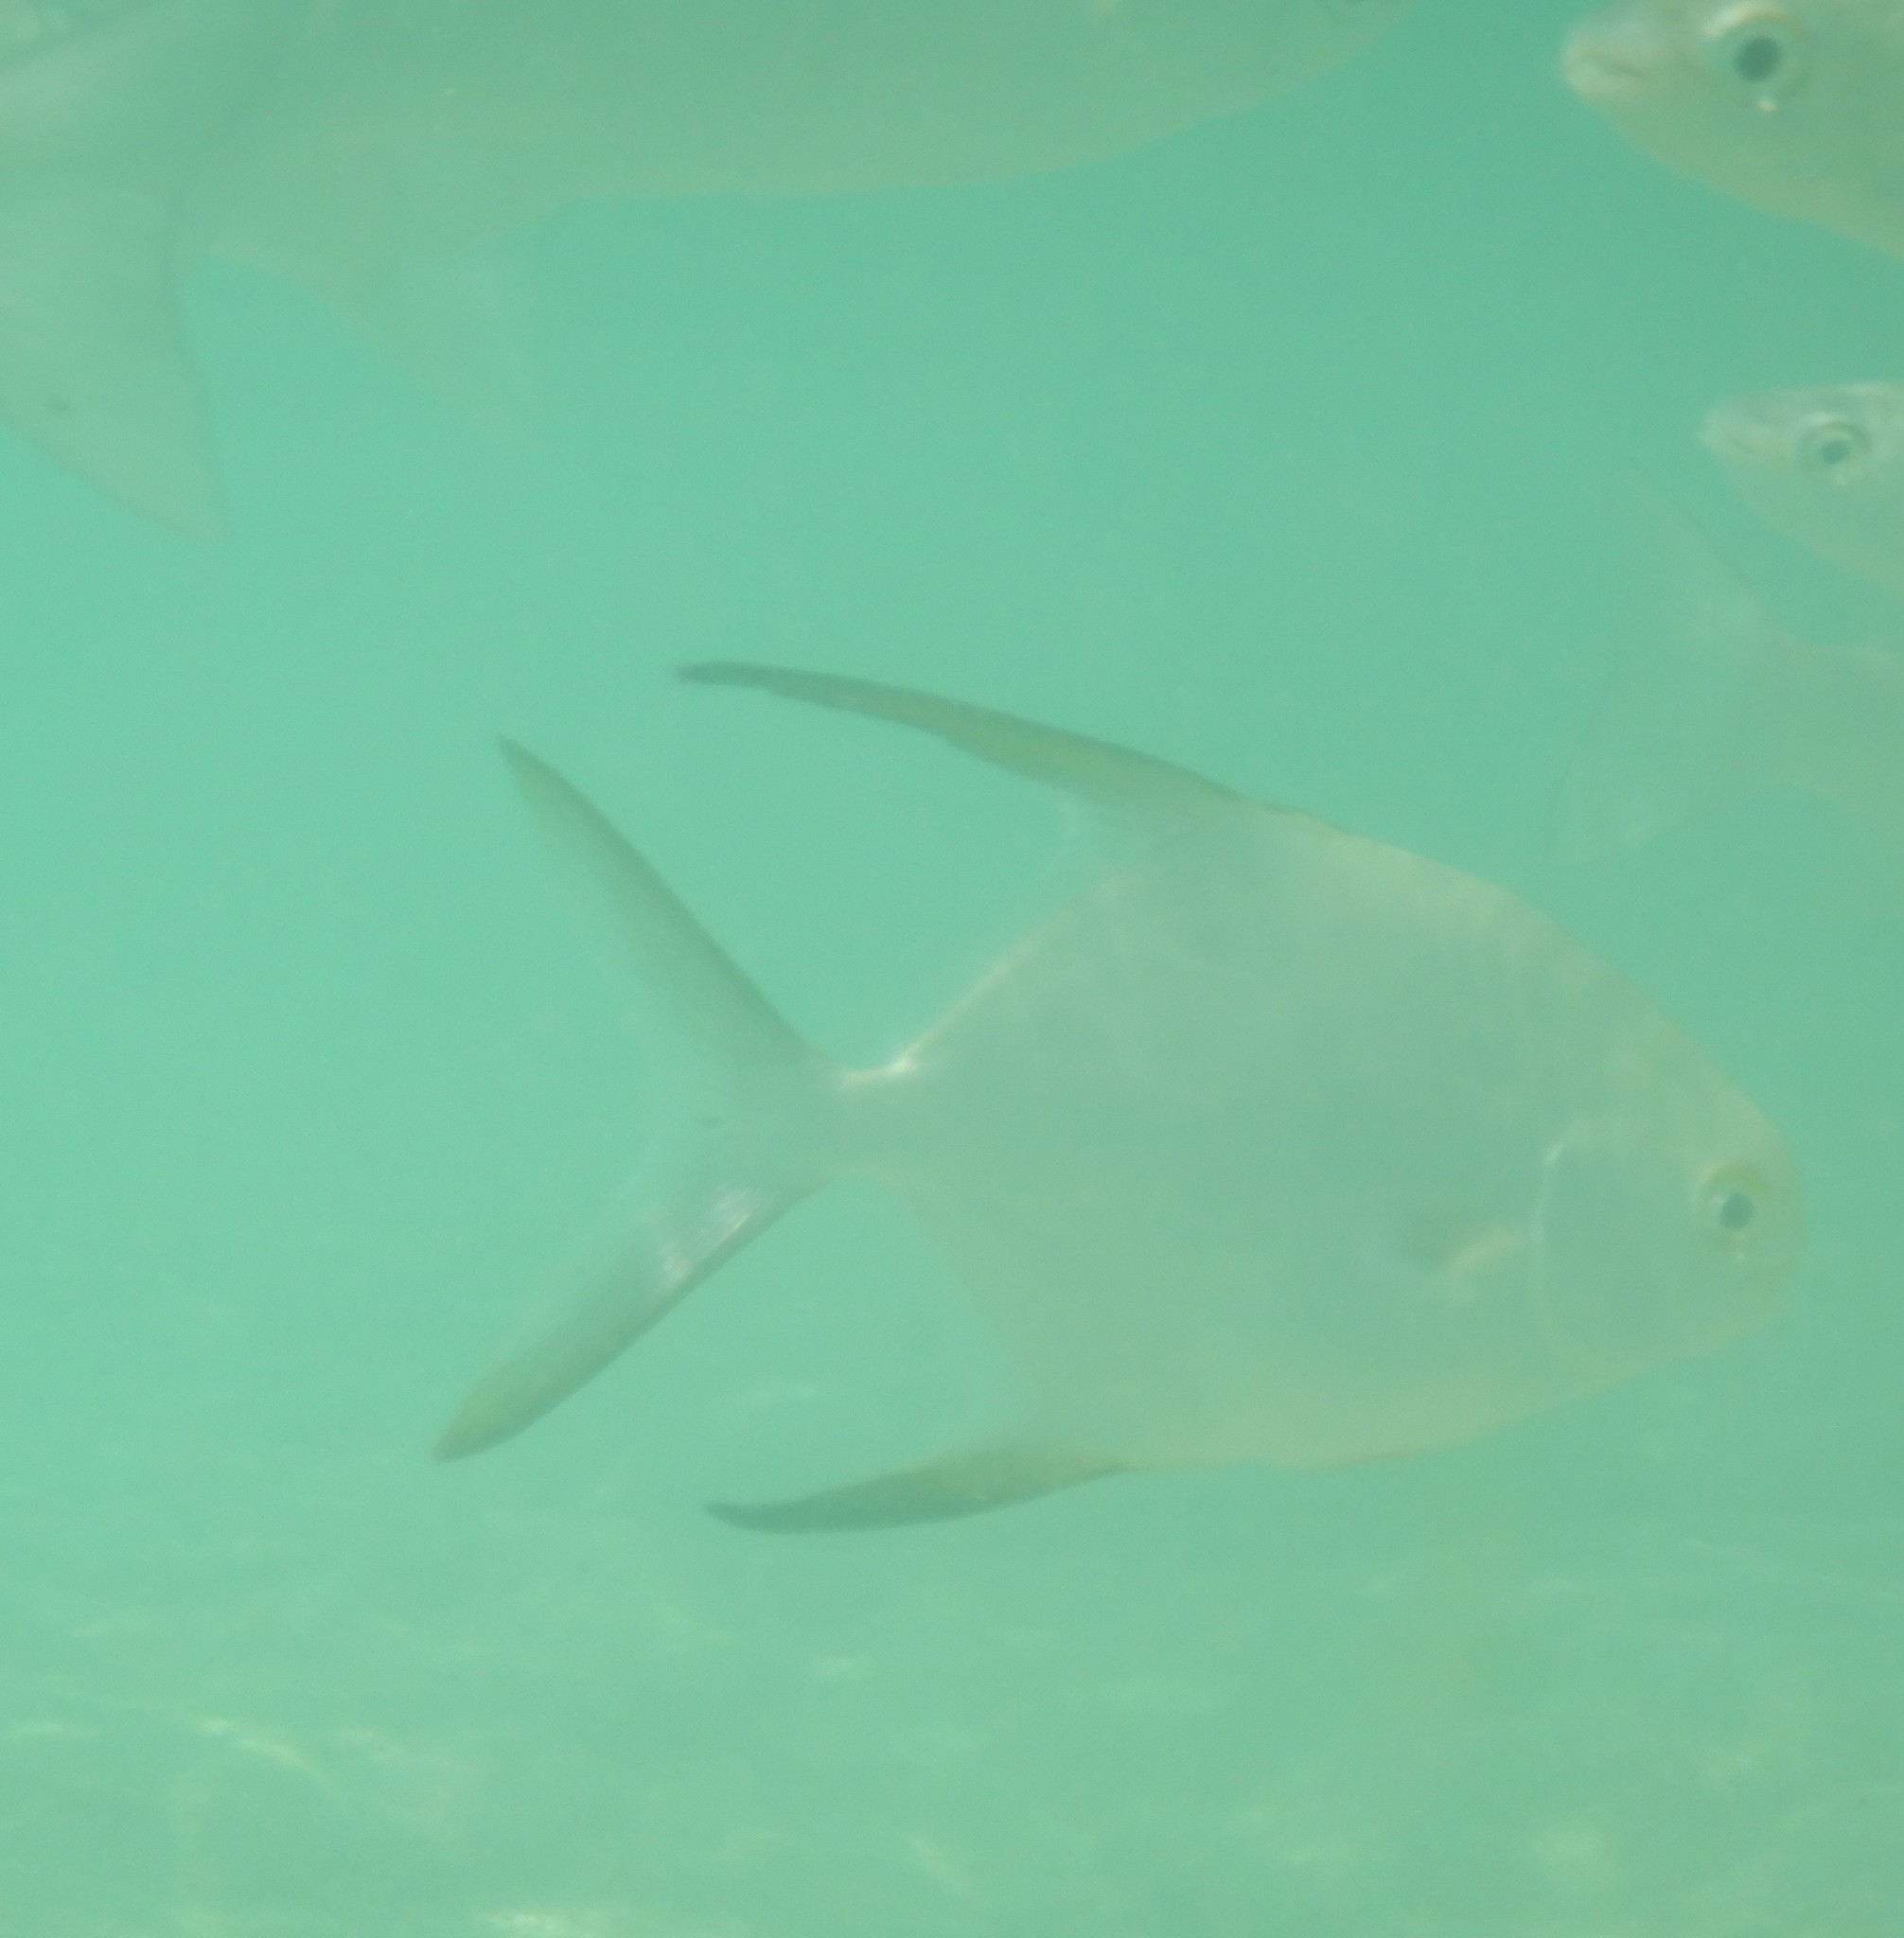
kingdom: Animalia
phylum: Chordata
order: Perciformes
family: Carangidae
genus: Trachinotus
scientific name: Trachinotus blochii
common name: Snubnose pompano
